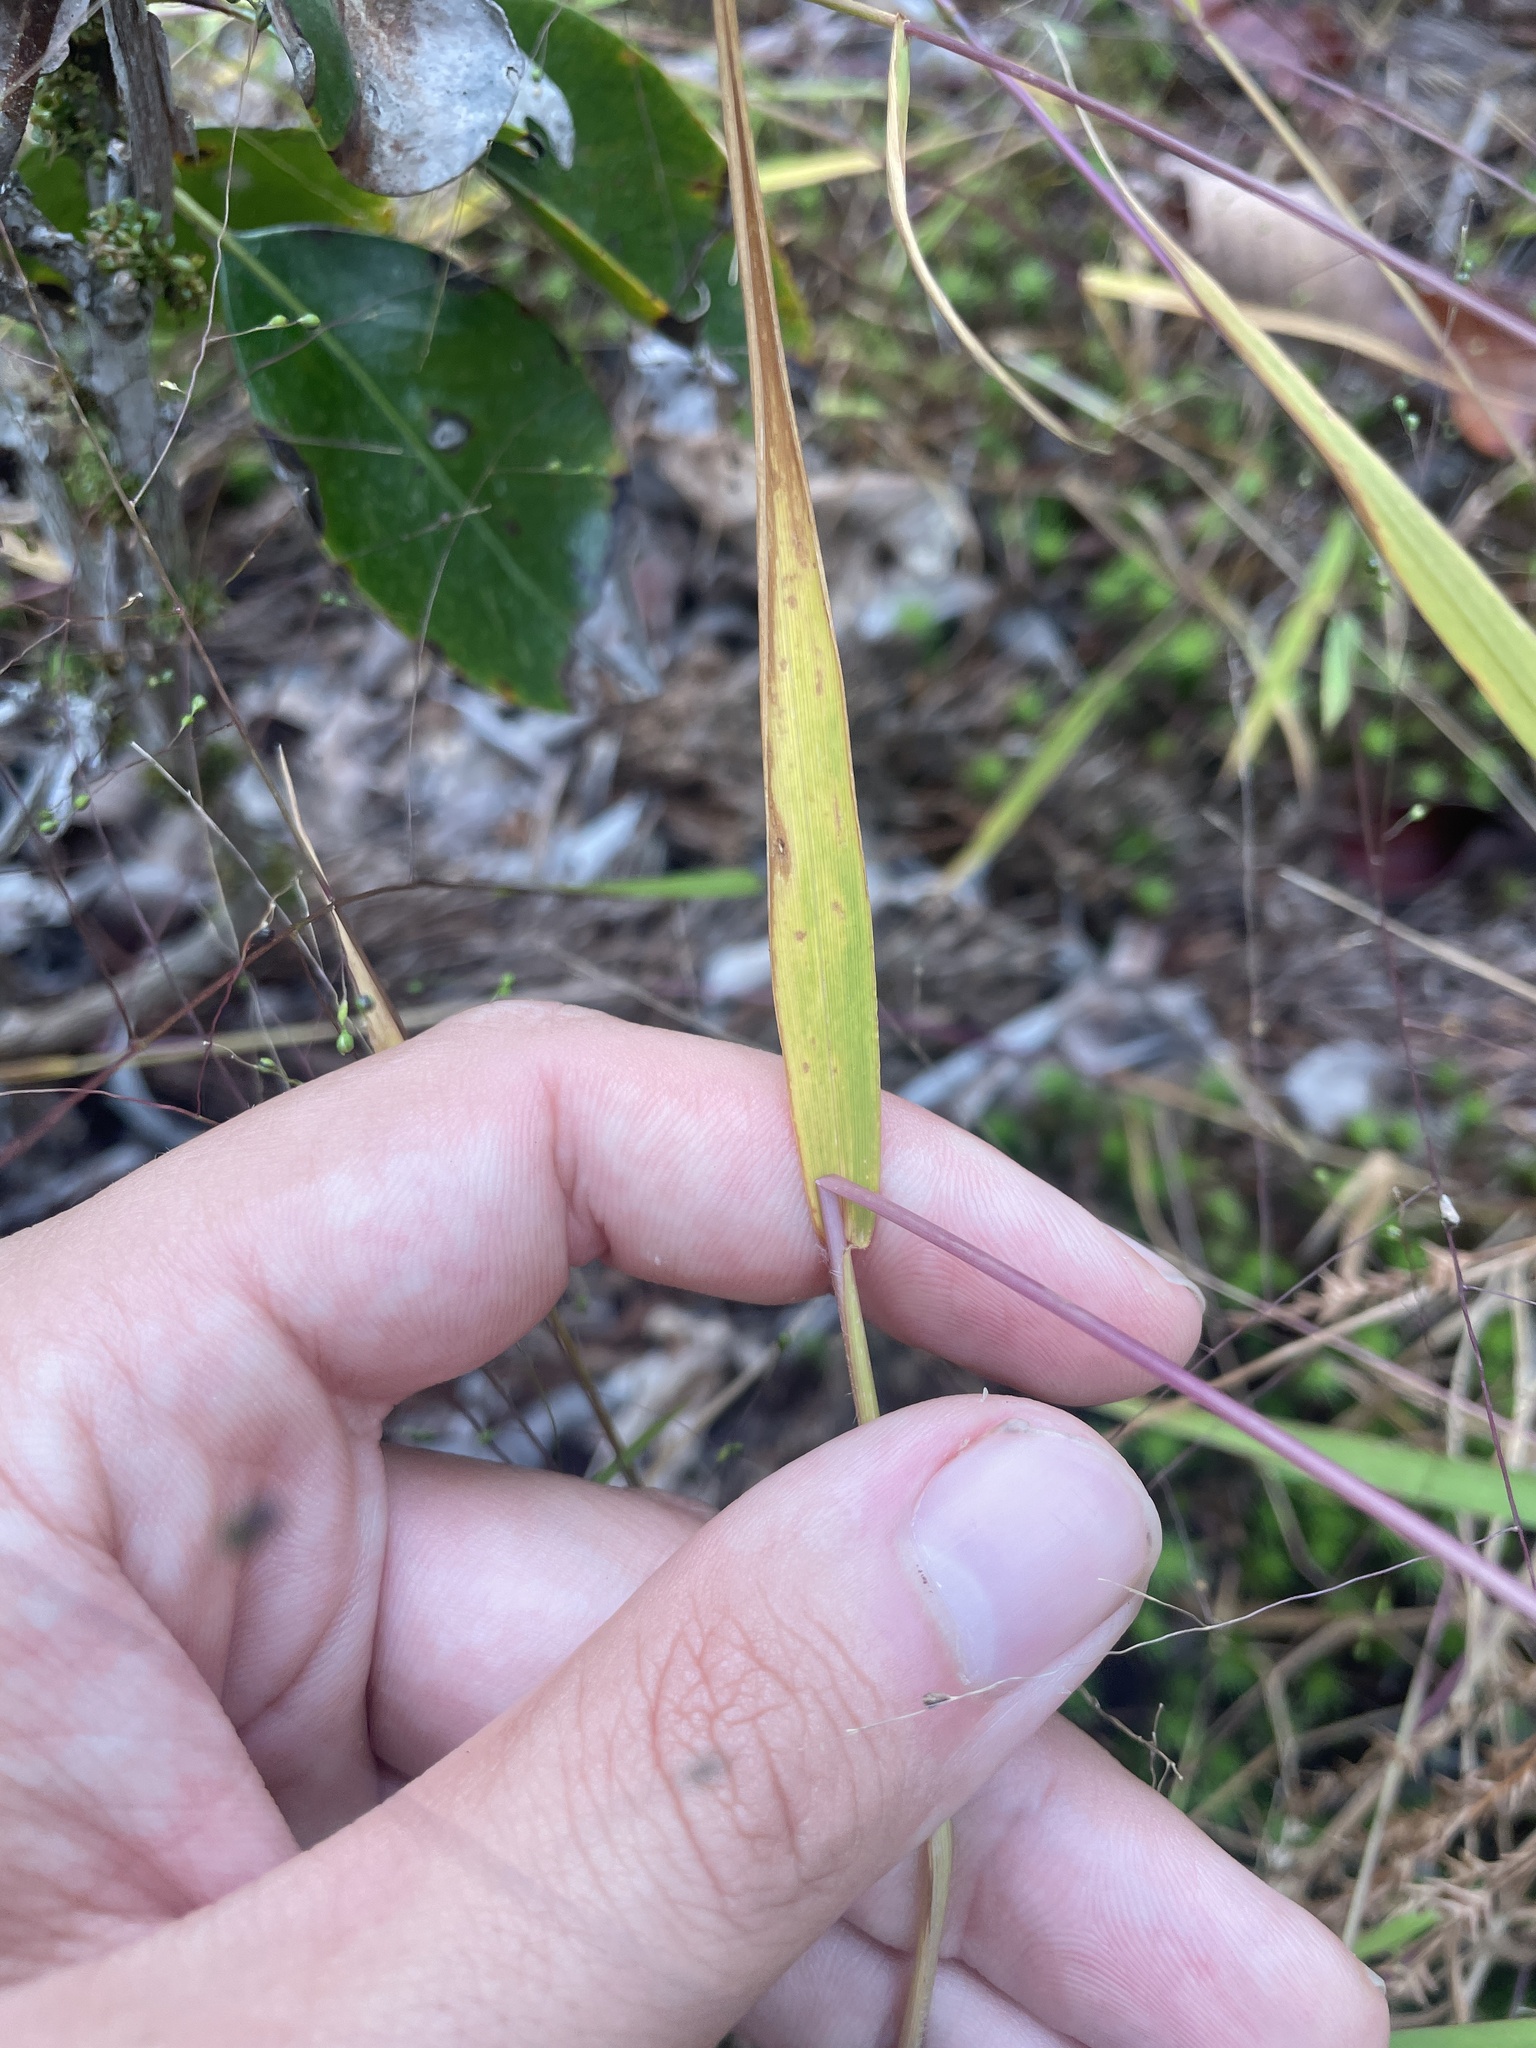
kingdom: Plantae
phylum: Tracheophyta
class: Liliopsida
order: Poales
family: Poaceae
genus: Kellochloa
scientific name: Kellochloa verrucosa
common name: Warty panic grass
